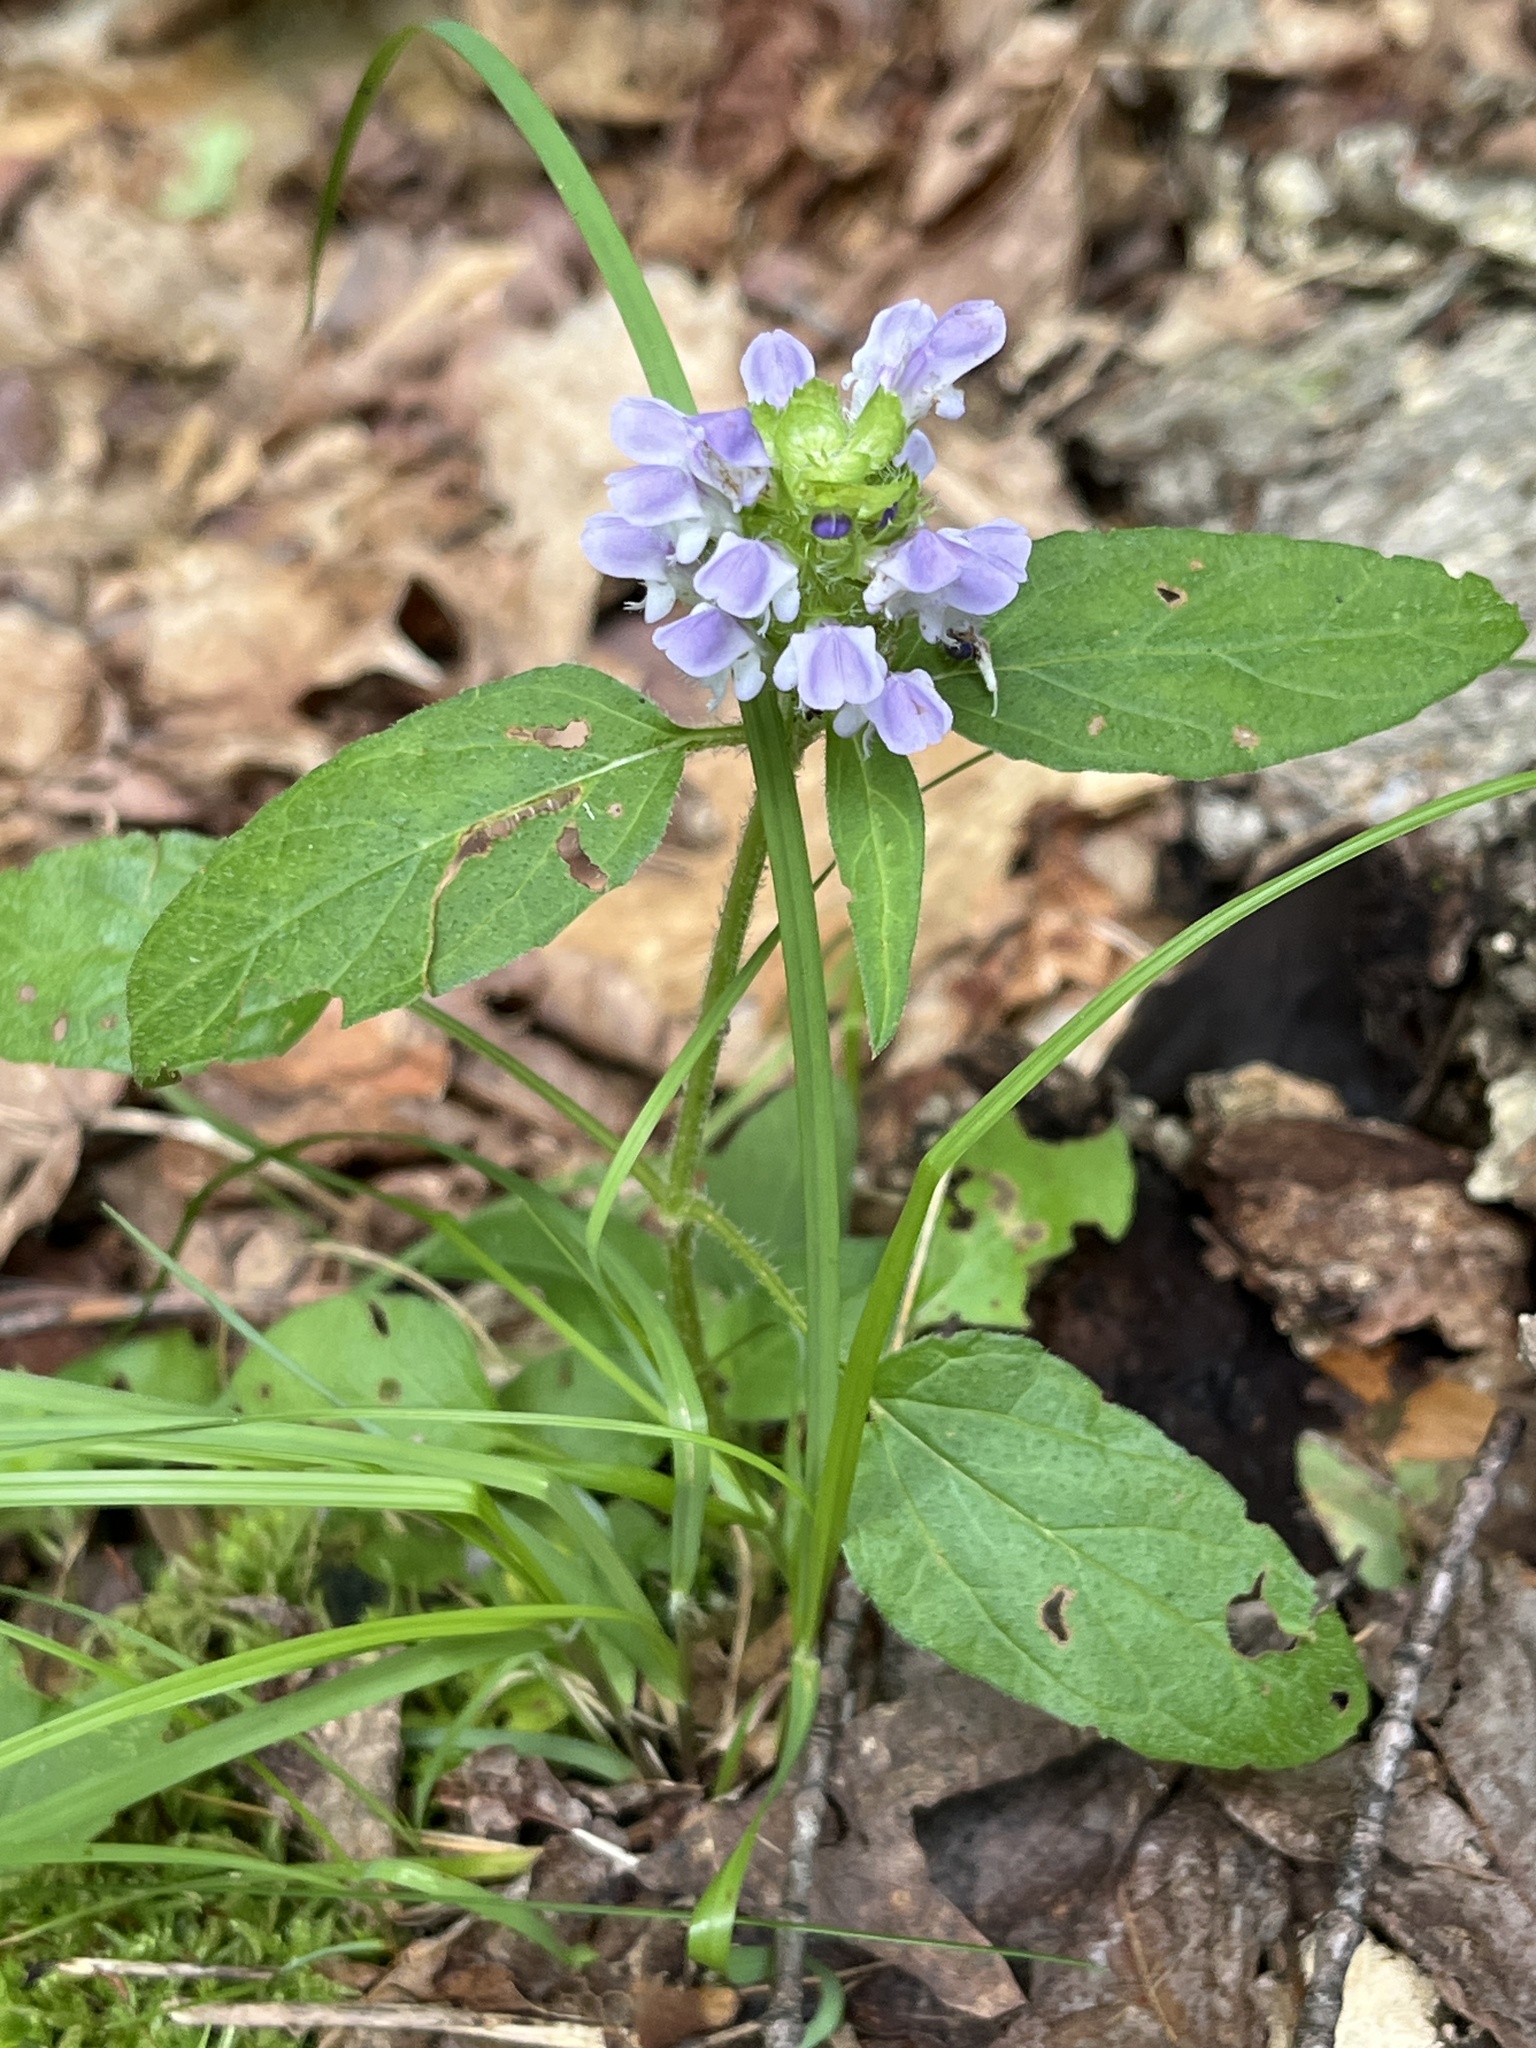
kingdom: Plantae
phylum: Tracheophyta
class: Magnoliopsida
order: Lamiales
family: Lamiaceae
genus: Prunella
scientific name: Prunella vulgaris
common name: Heal-all
